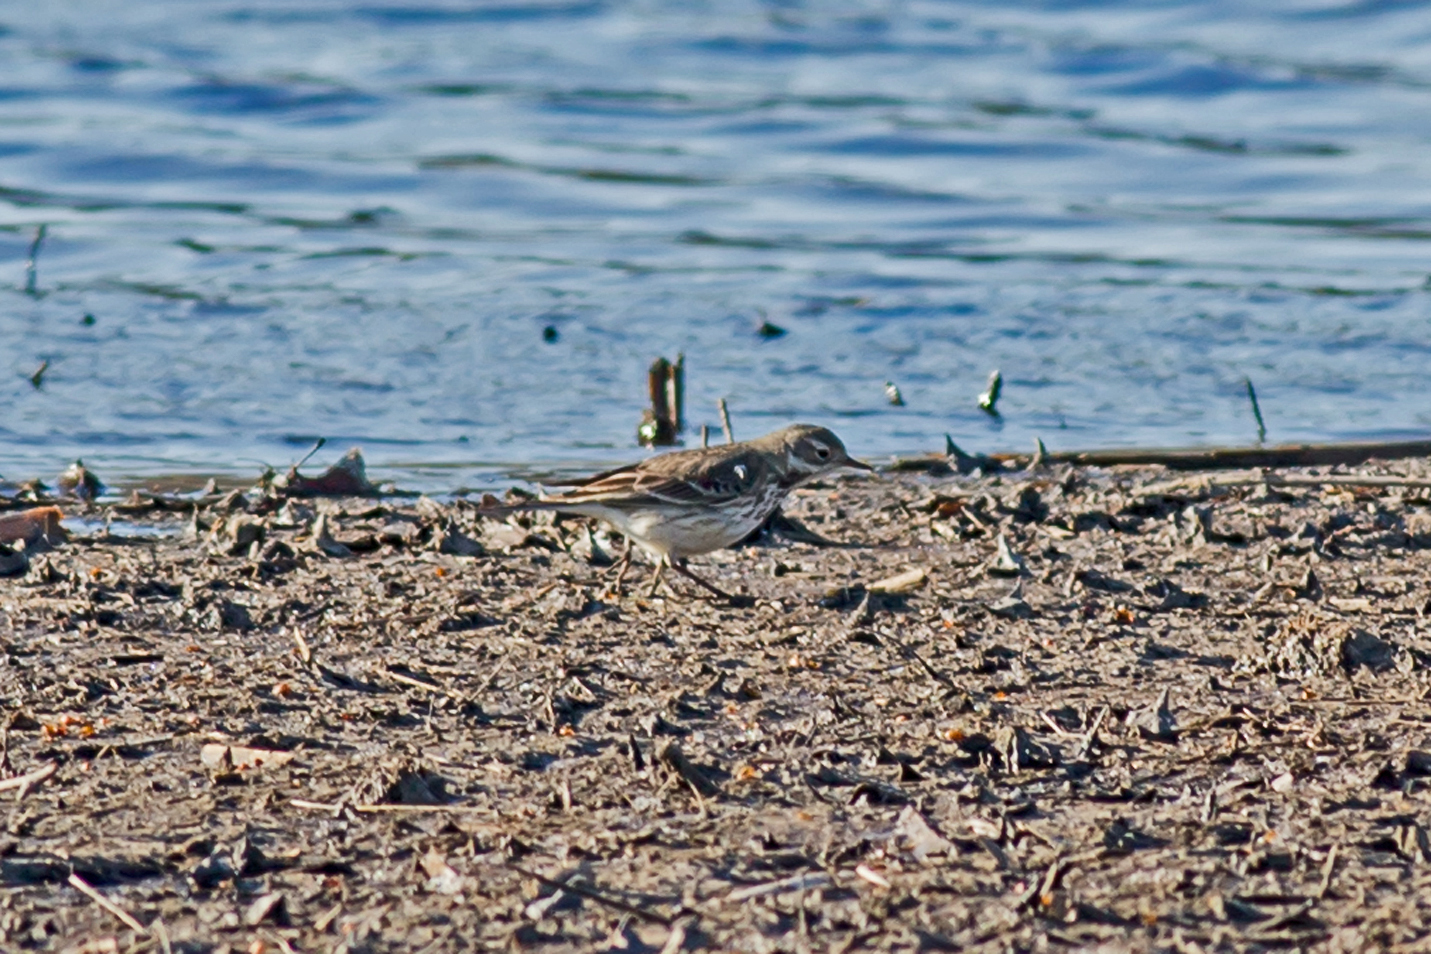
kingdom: Animalia
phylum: Chordata
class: Aves
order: Passeriformes
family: Motacillidae
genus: Anthus
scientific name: Anthus rubescens
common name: Buff-bellied pipit
